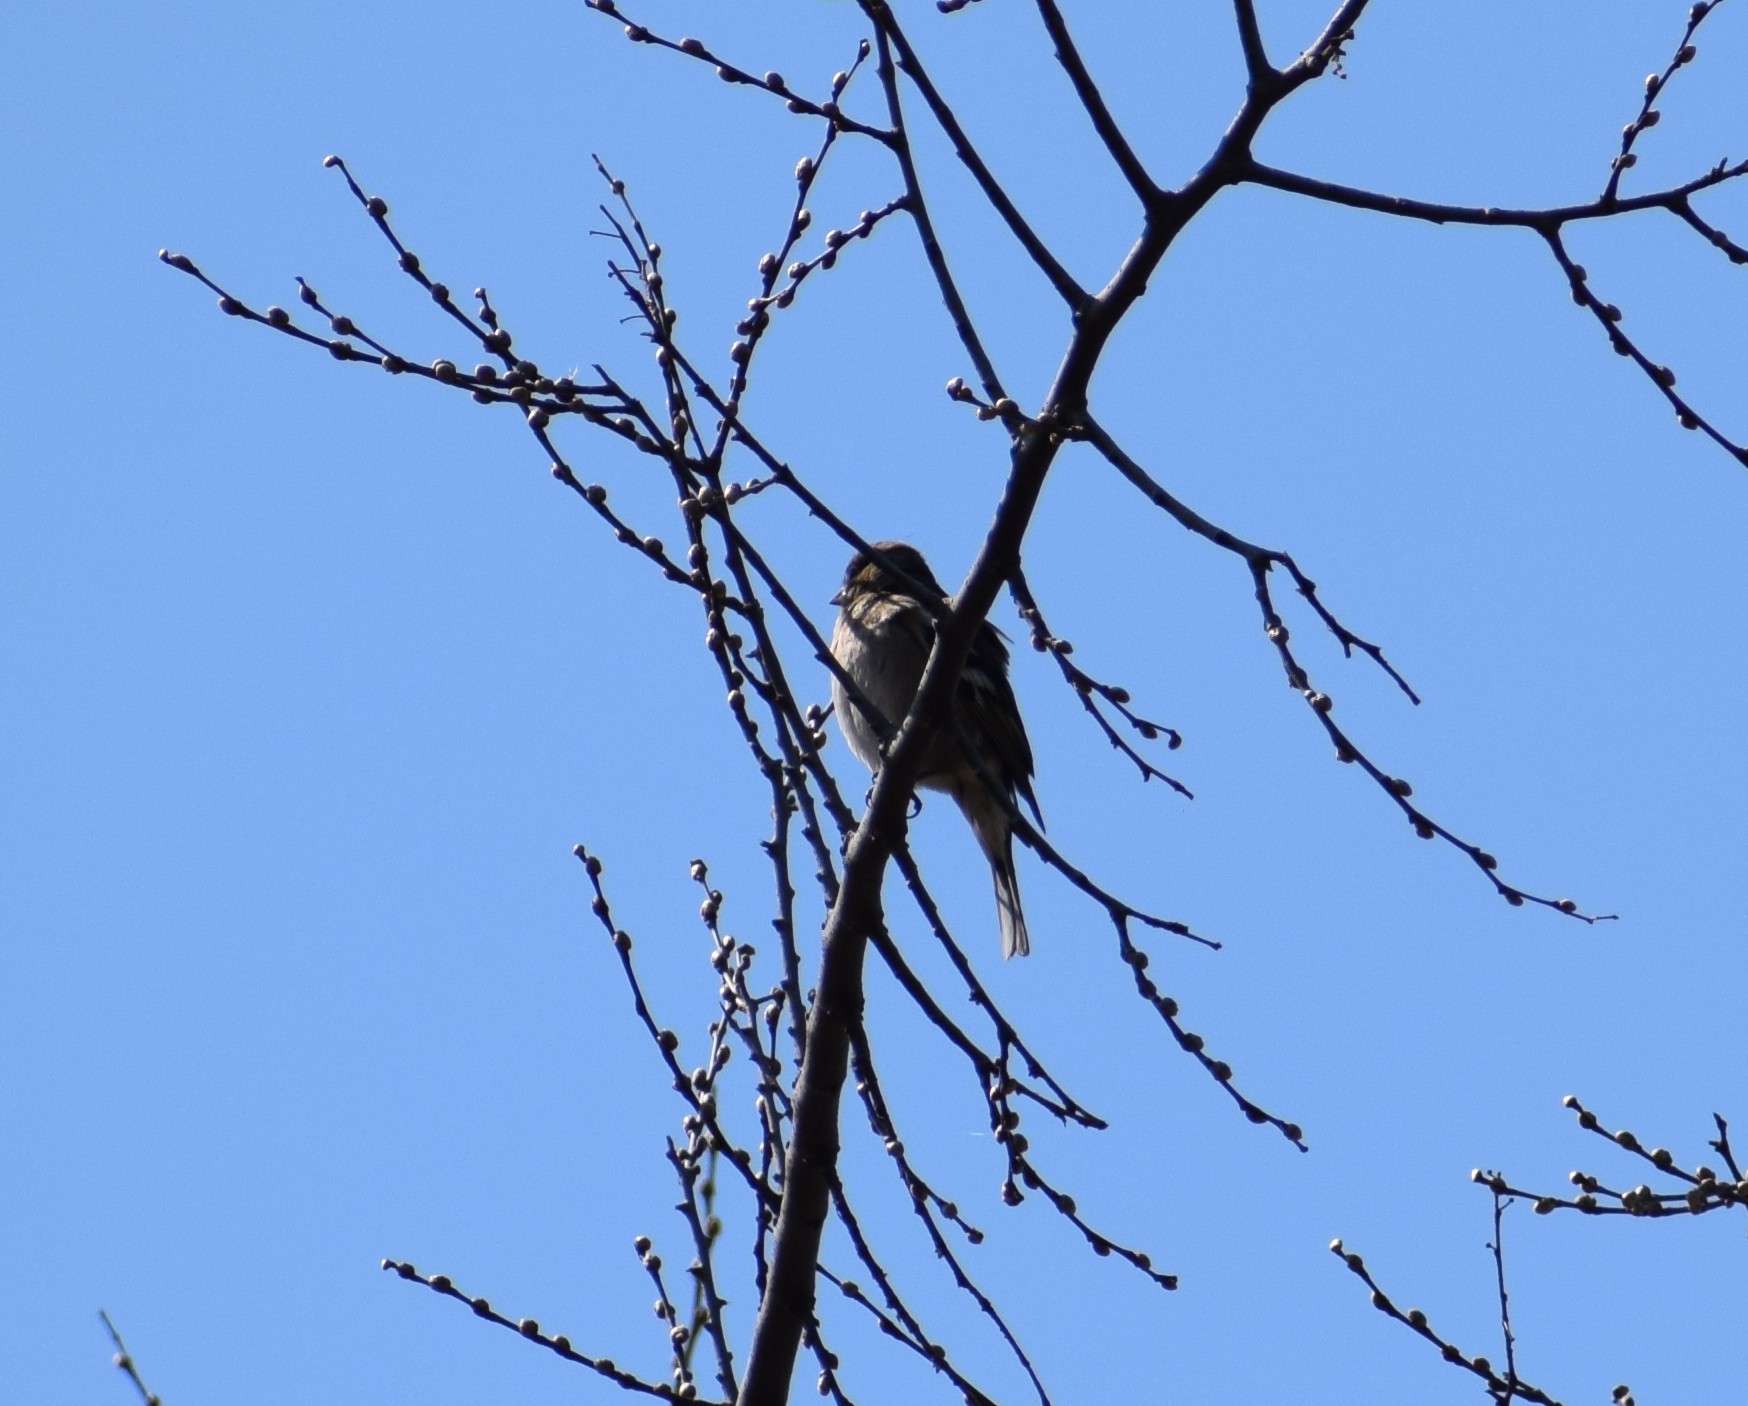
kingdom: Animalia
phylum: Chordata
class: Aves
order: Passeriformes
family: Fringillidae
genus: Fringilla
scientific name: Fringilla coelebs
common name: Common chaffinch
